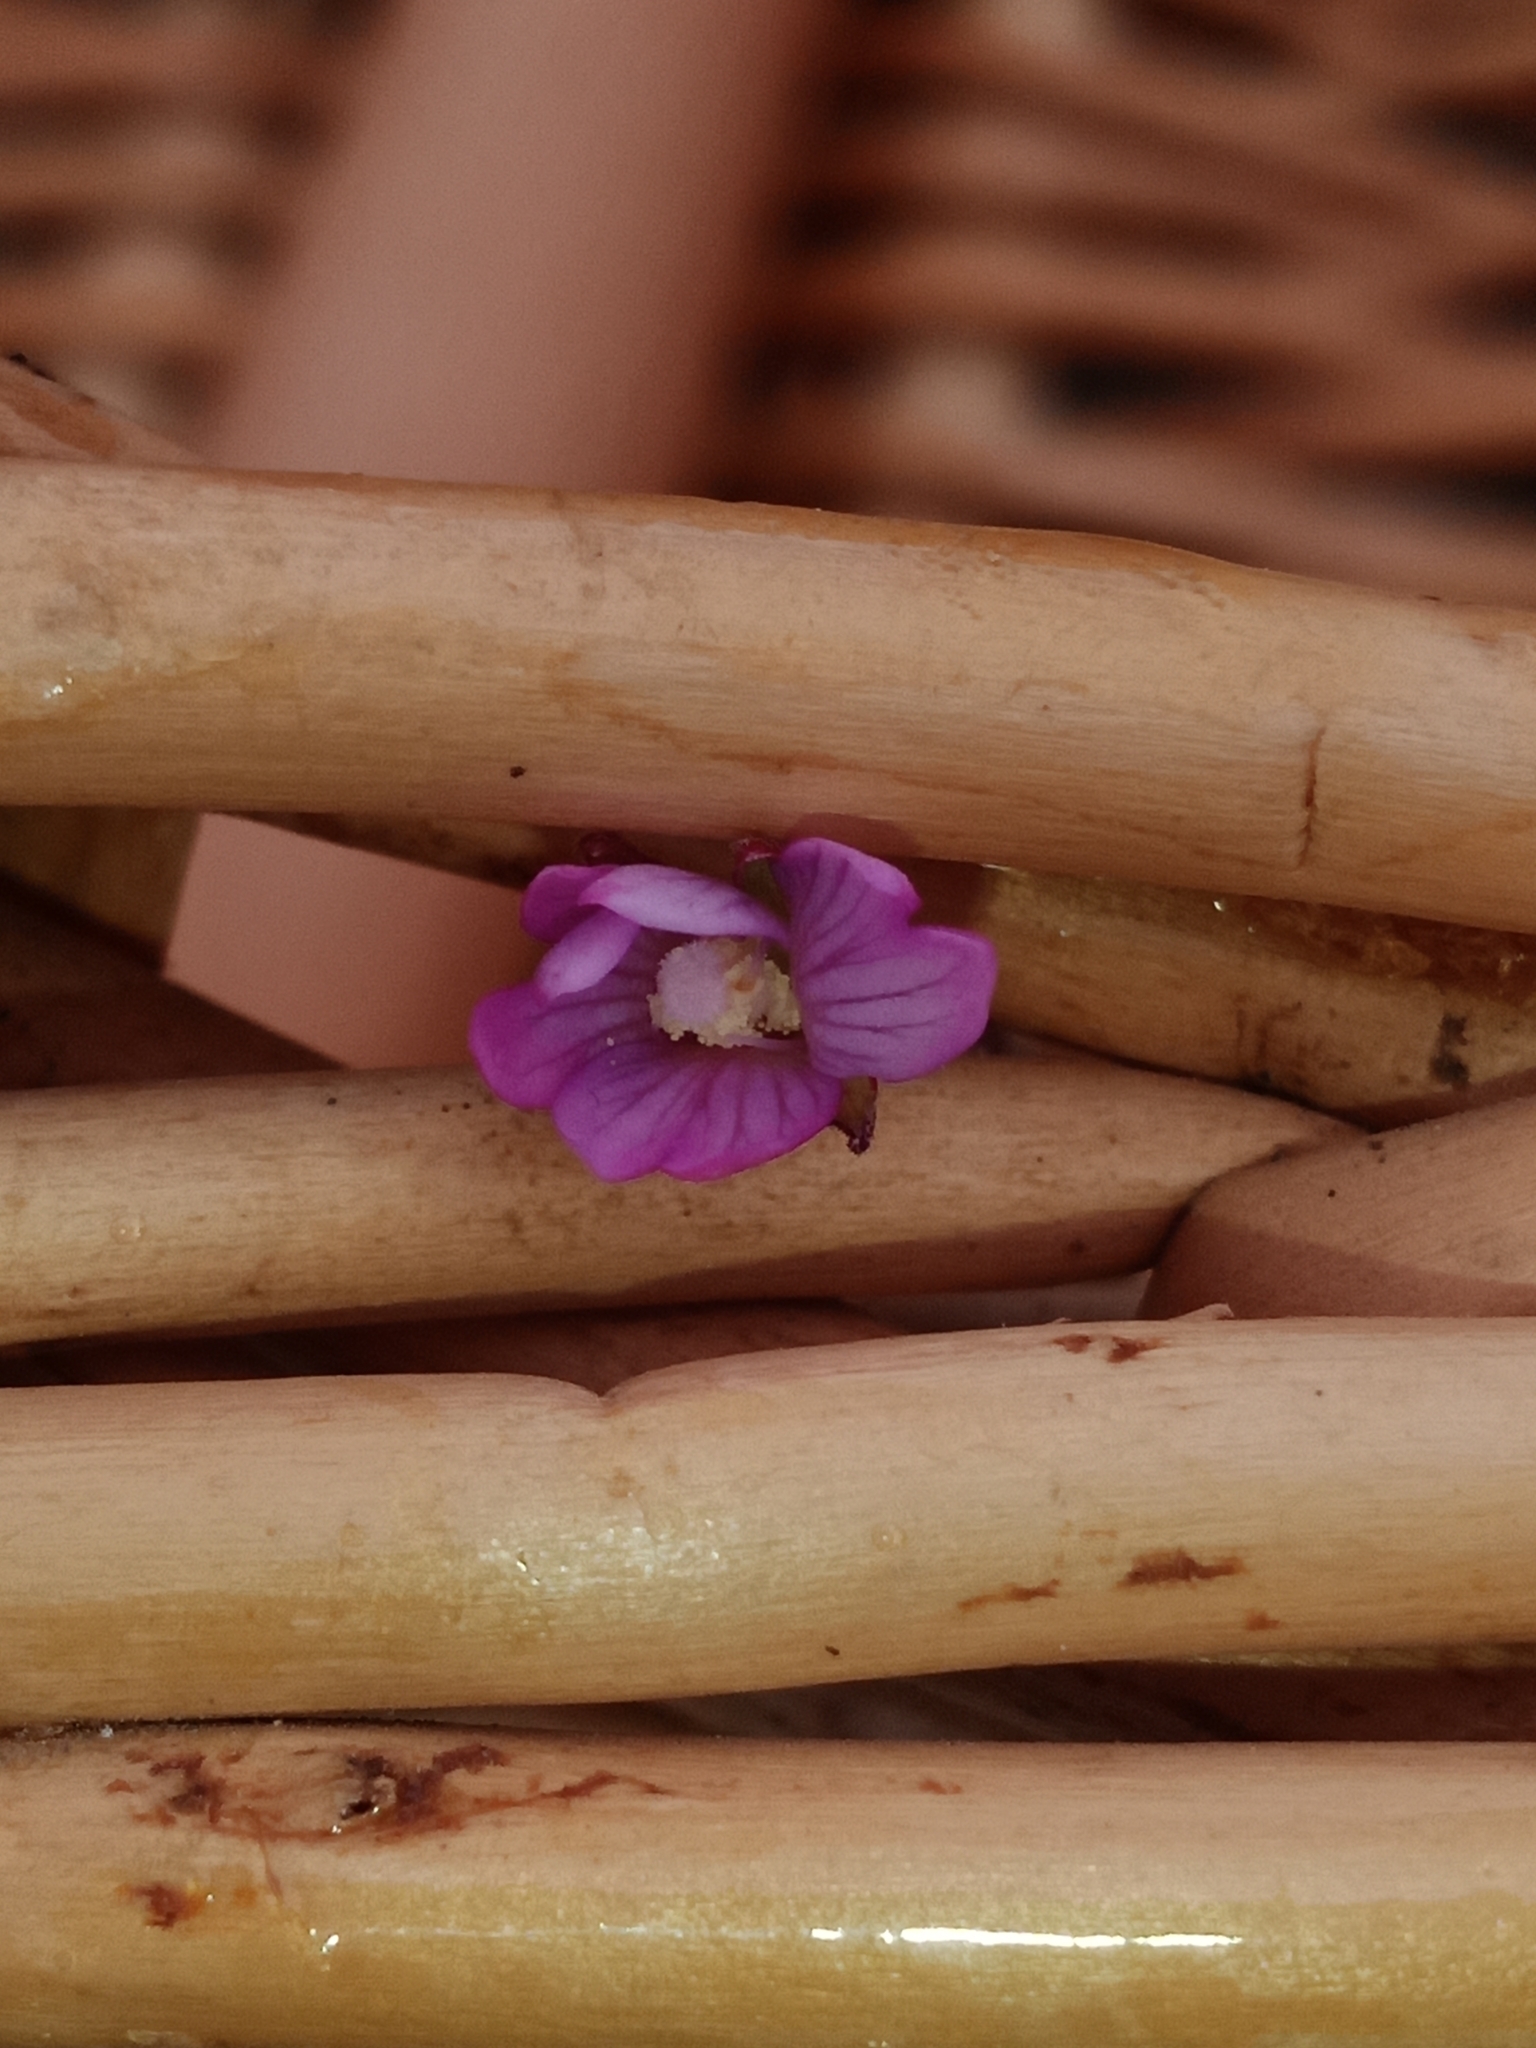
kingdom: Plantae
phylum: Tracheophyta
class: Magnoliopsida
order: Myrtales
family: Onagraceae
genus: Epilobium
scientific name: Epilobium ciliatum
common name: American willowherb
